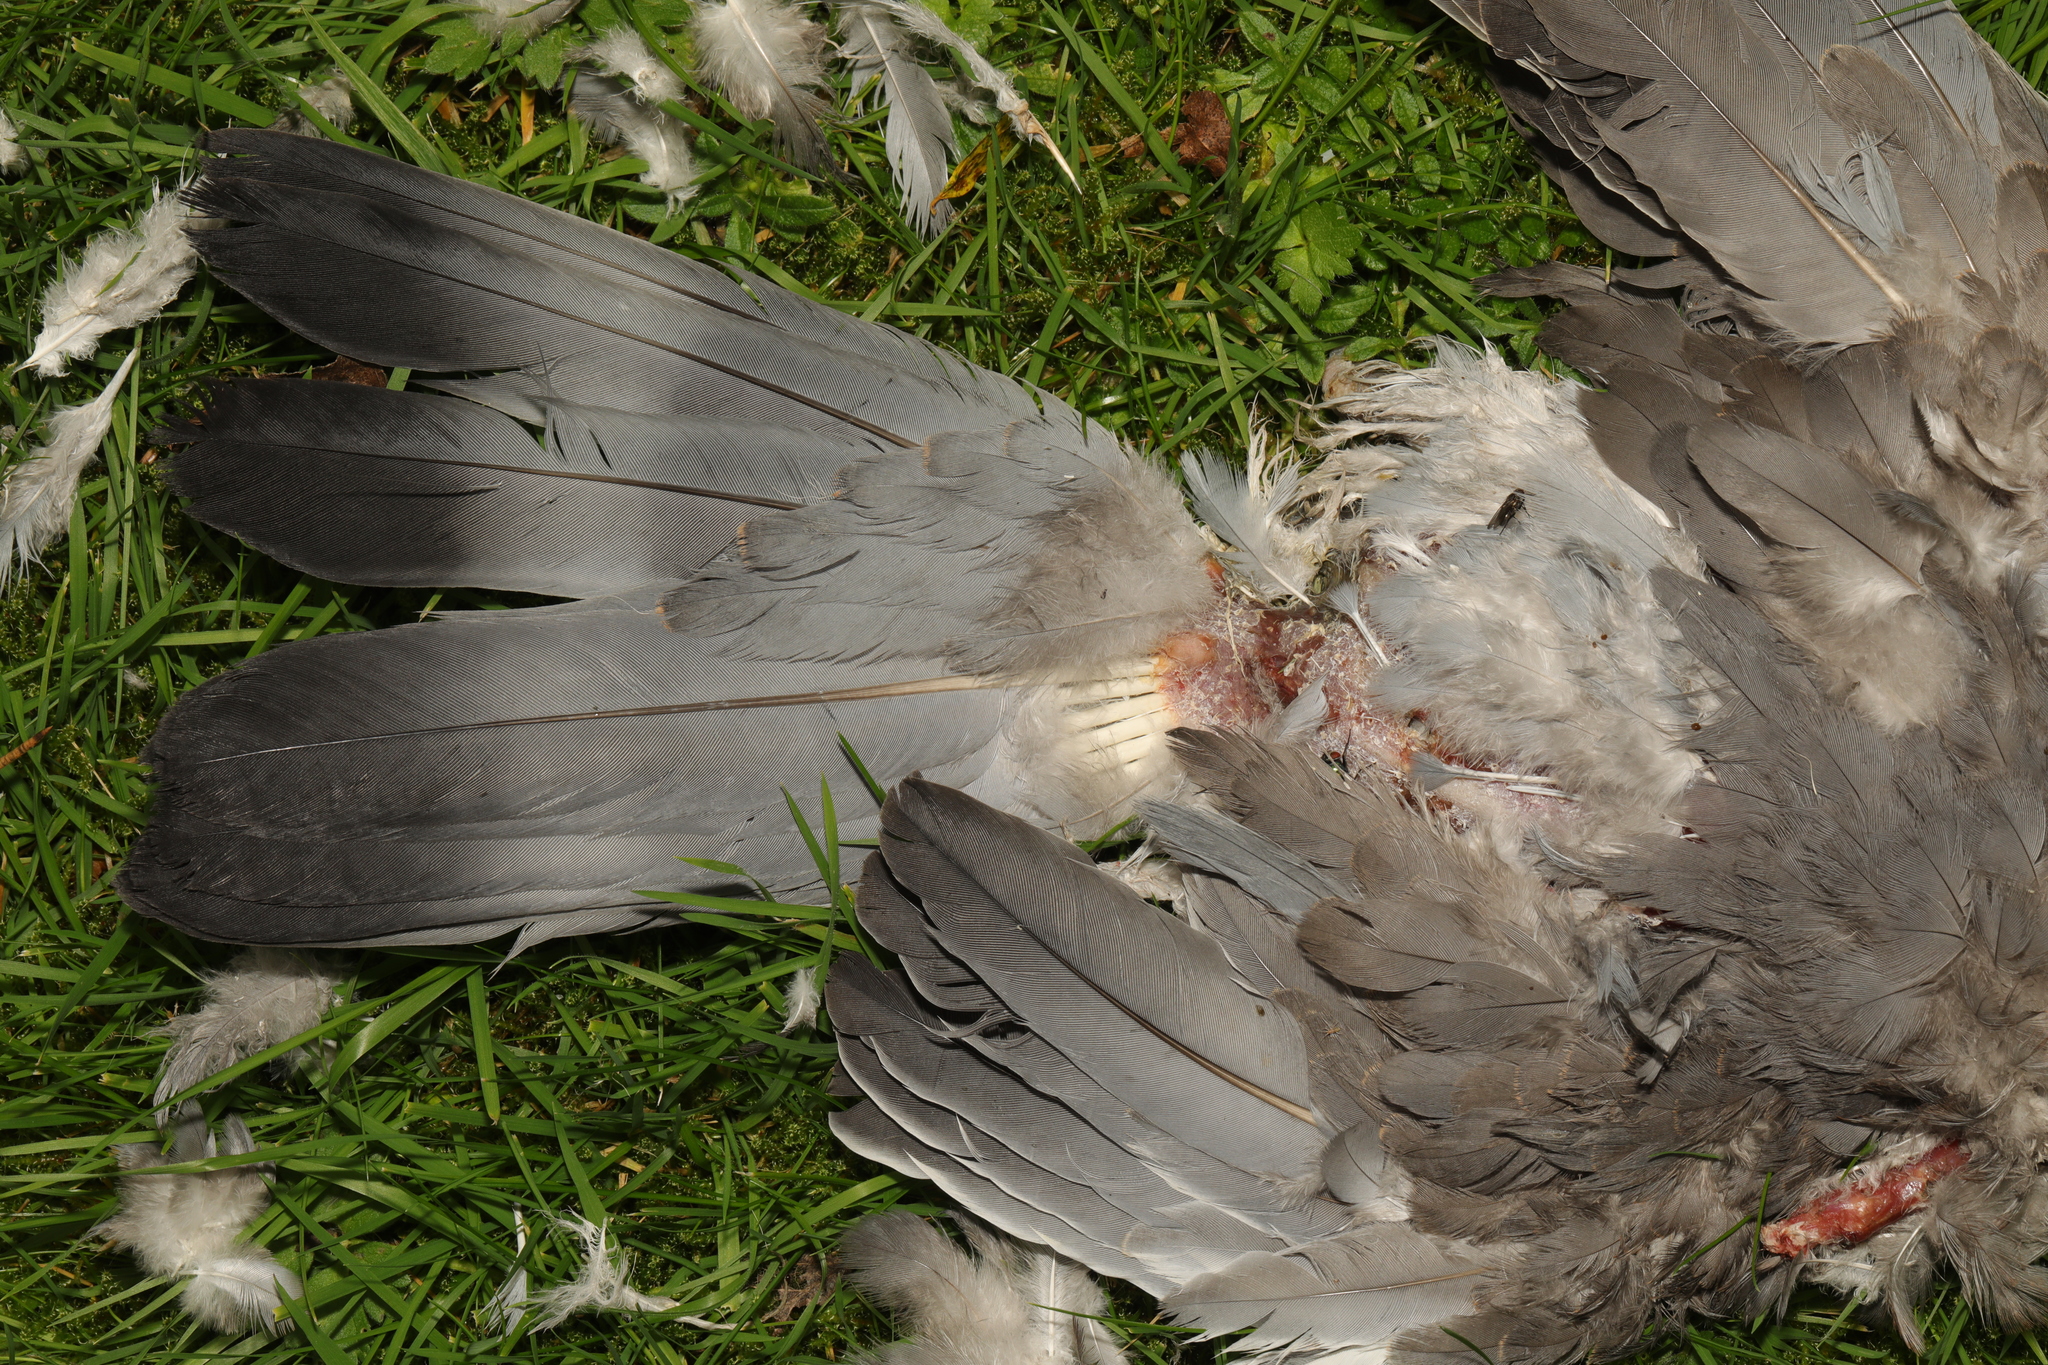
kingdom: Animalia
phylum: Chordata
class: Aves
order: Columbiformes
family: Columbidae
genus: Columba
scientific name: Columba palumbus
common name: Common wood pigeon
